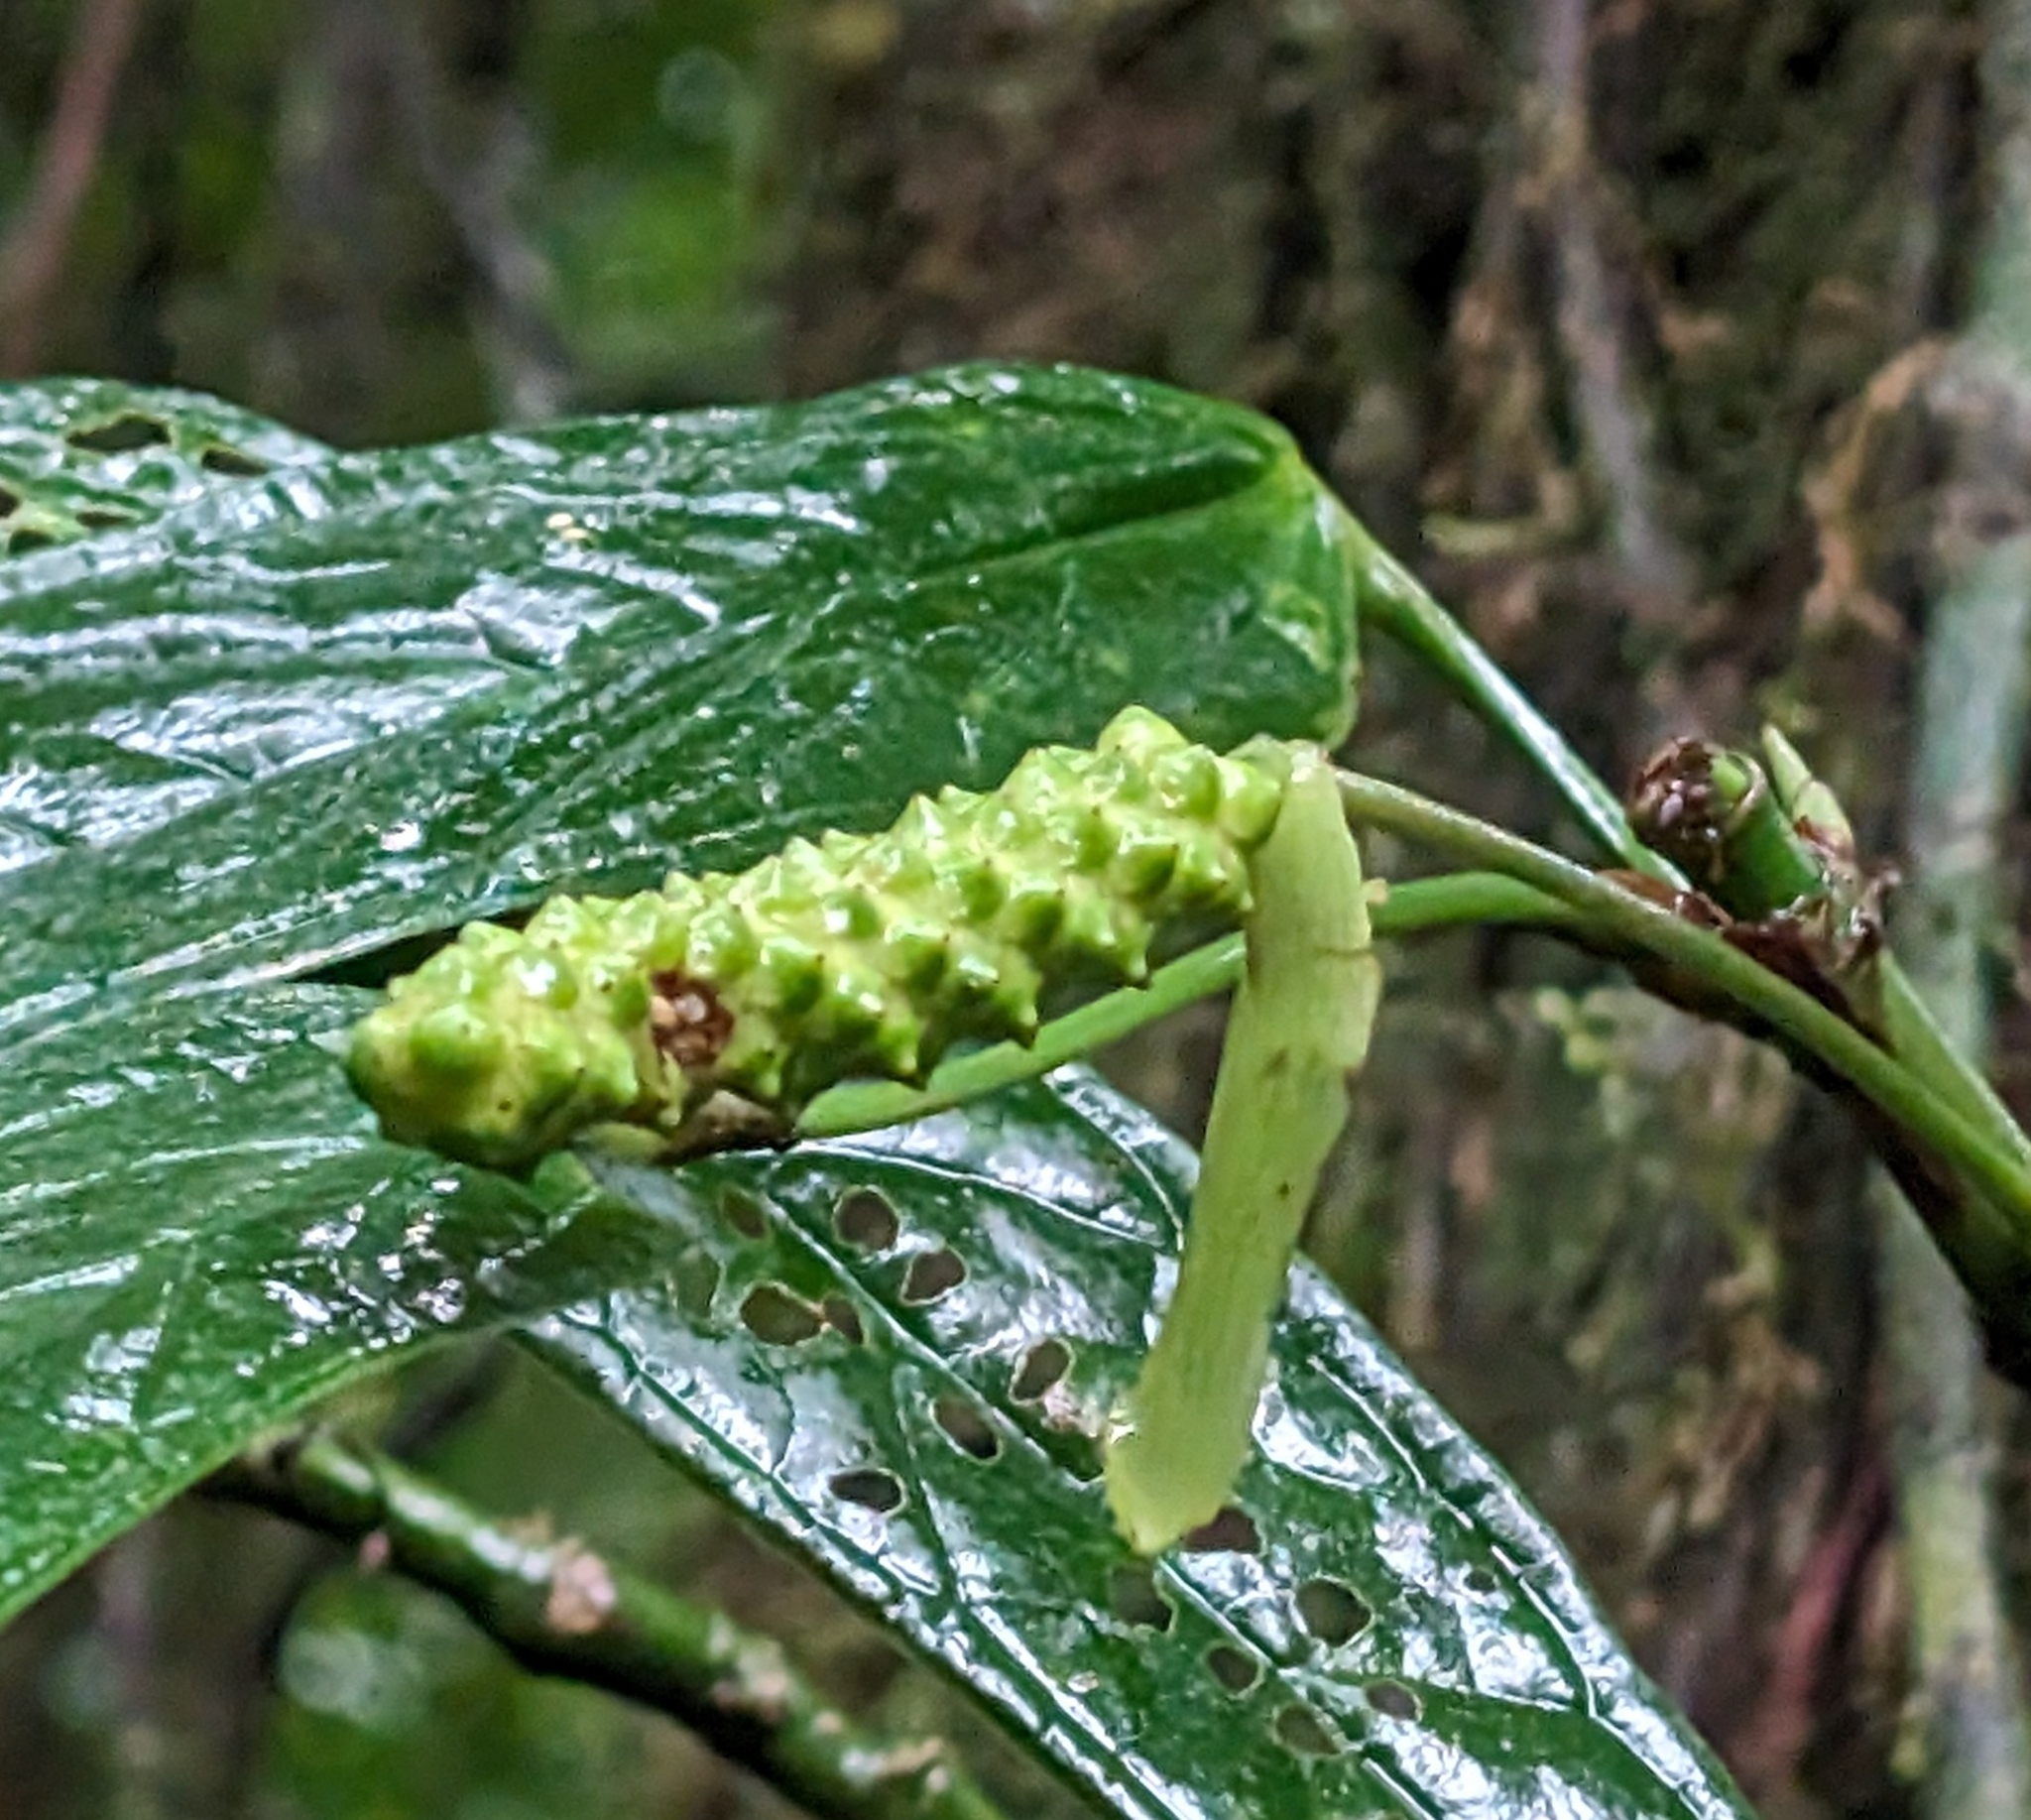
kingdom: Plantae
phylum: Tracheophyta
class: Liliopsida
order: Alismatales
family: Araceae
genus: Anthurium
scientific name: Anthurium microspadix
